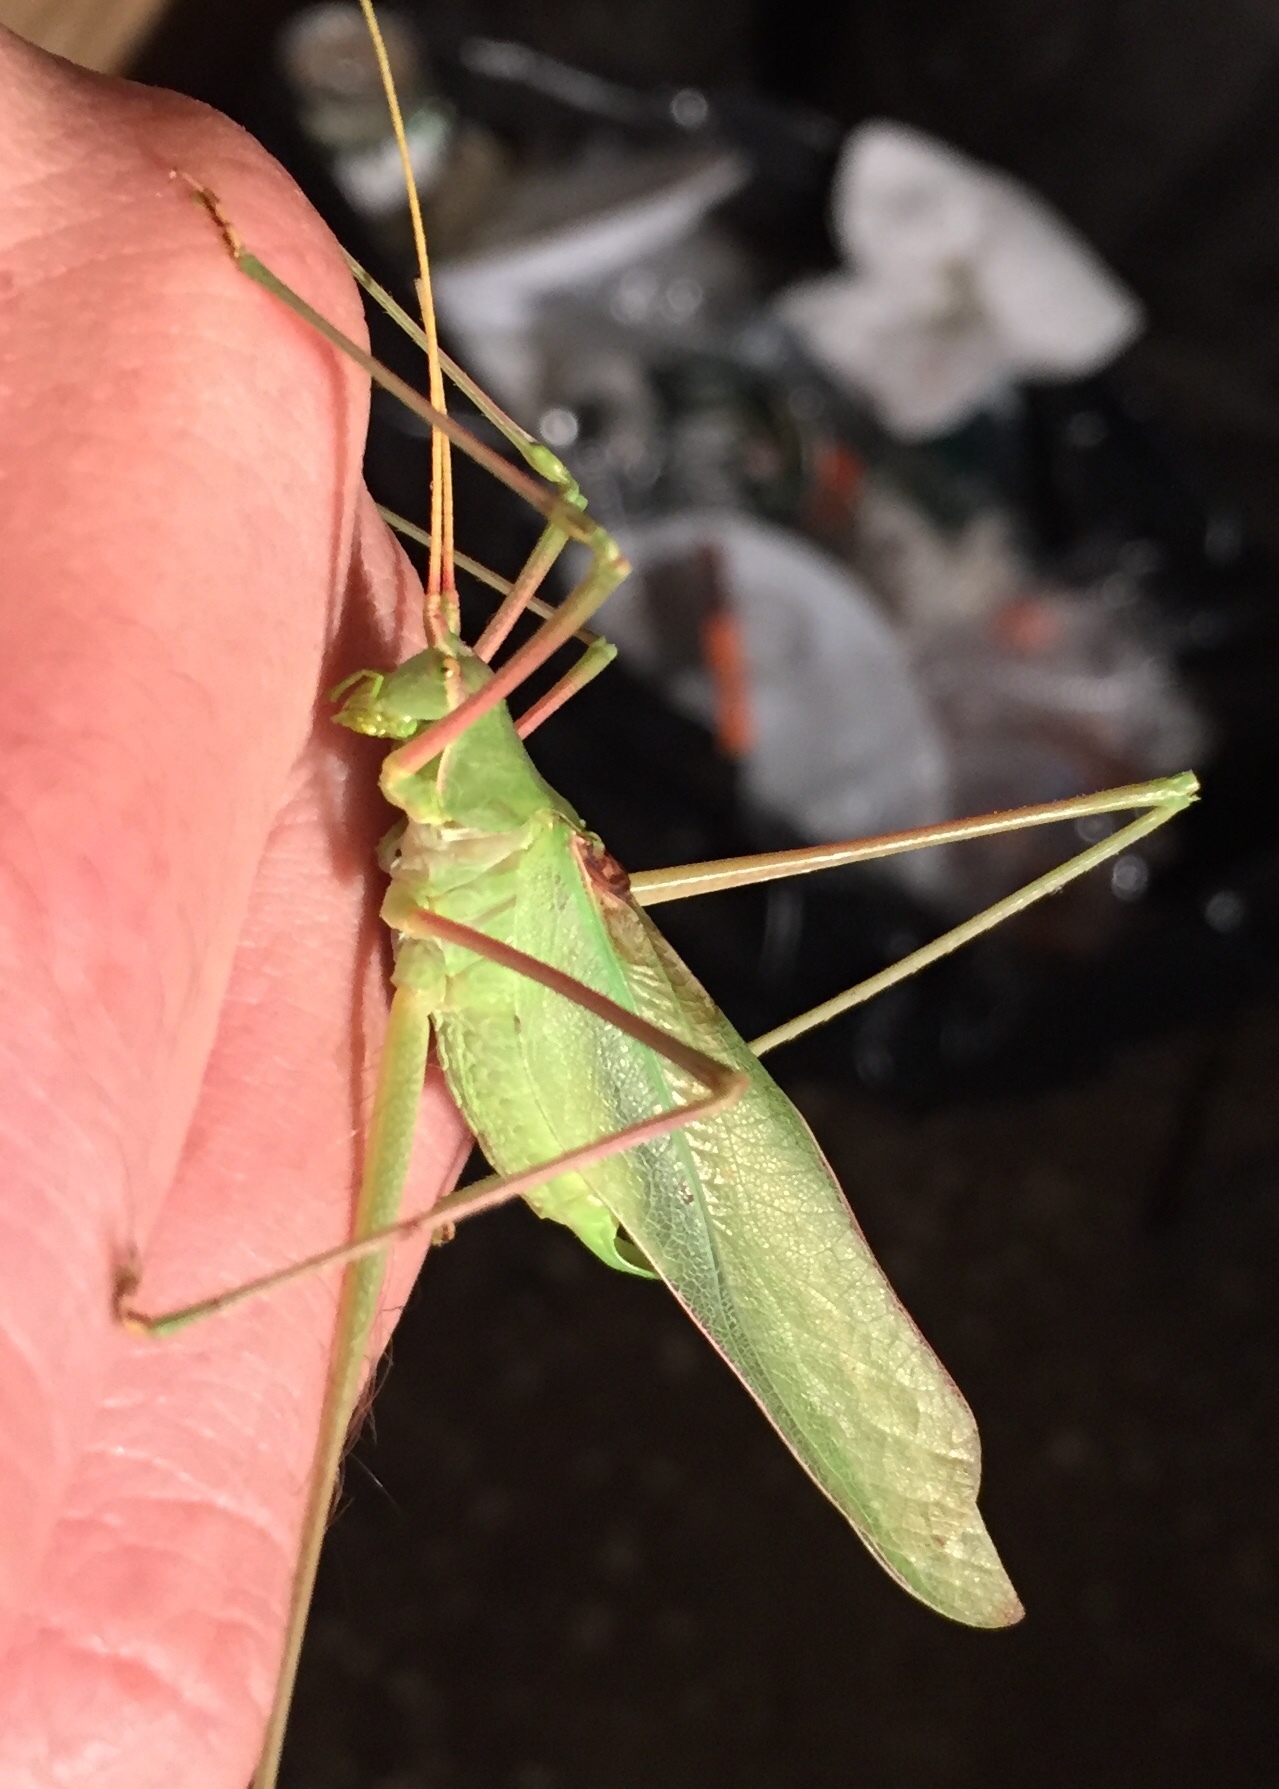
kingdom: Animalia
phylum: Arthropoda
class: Insecta
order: Orthoptera
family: Tettigoniidae
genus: Acrometopa
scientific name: Acrometopa servillea
